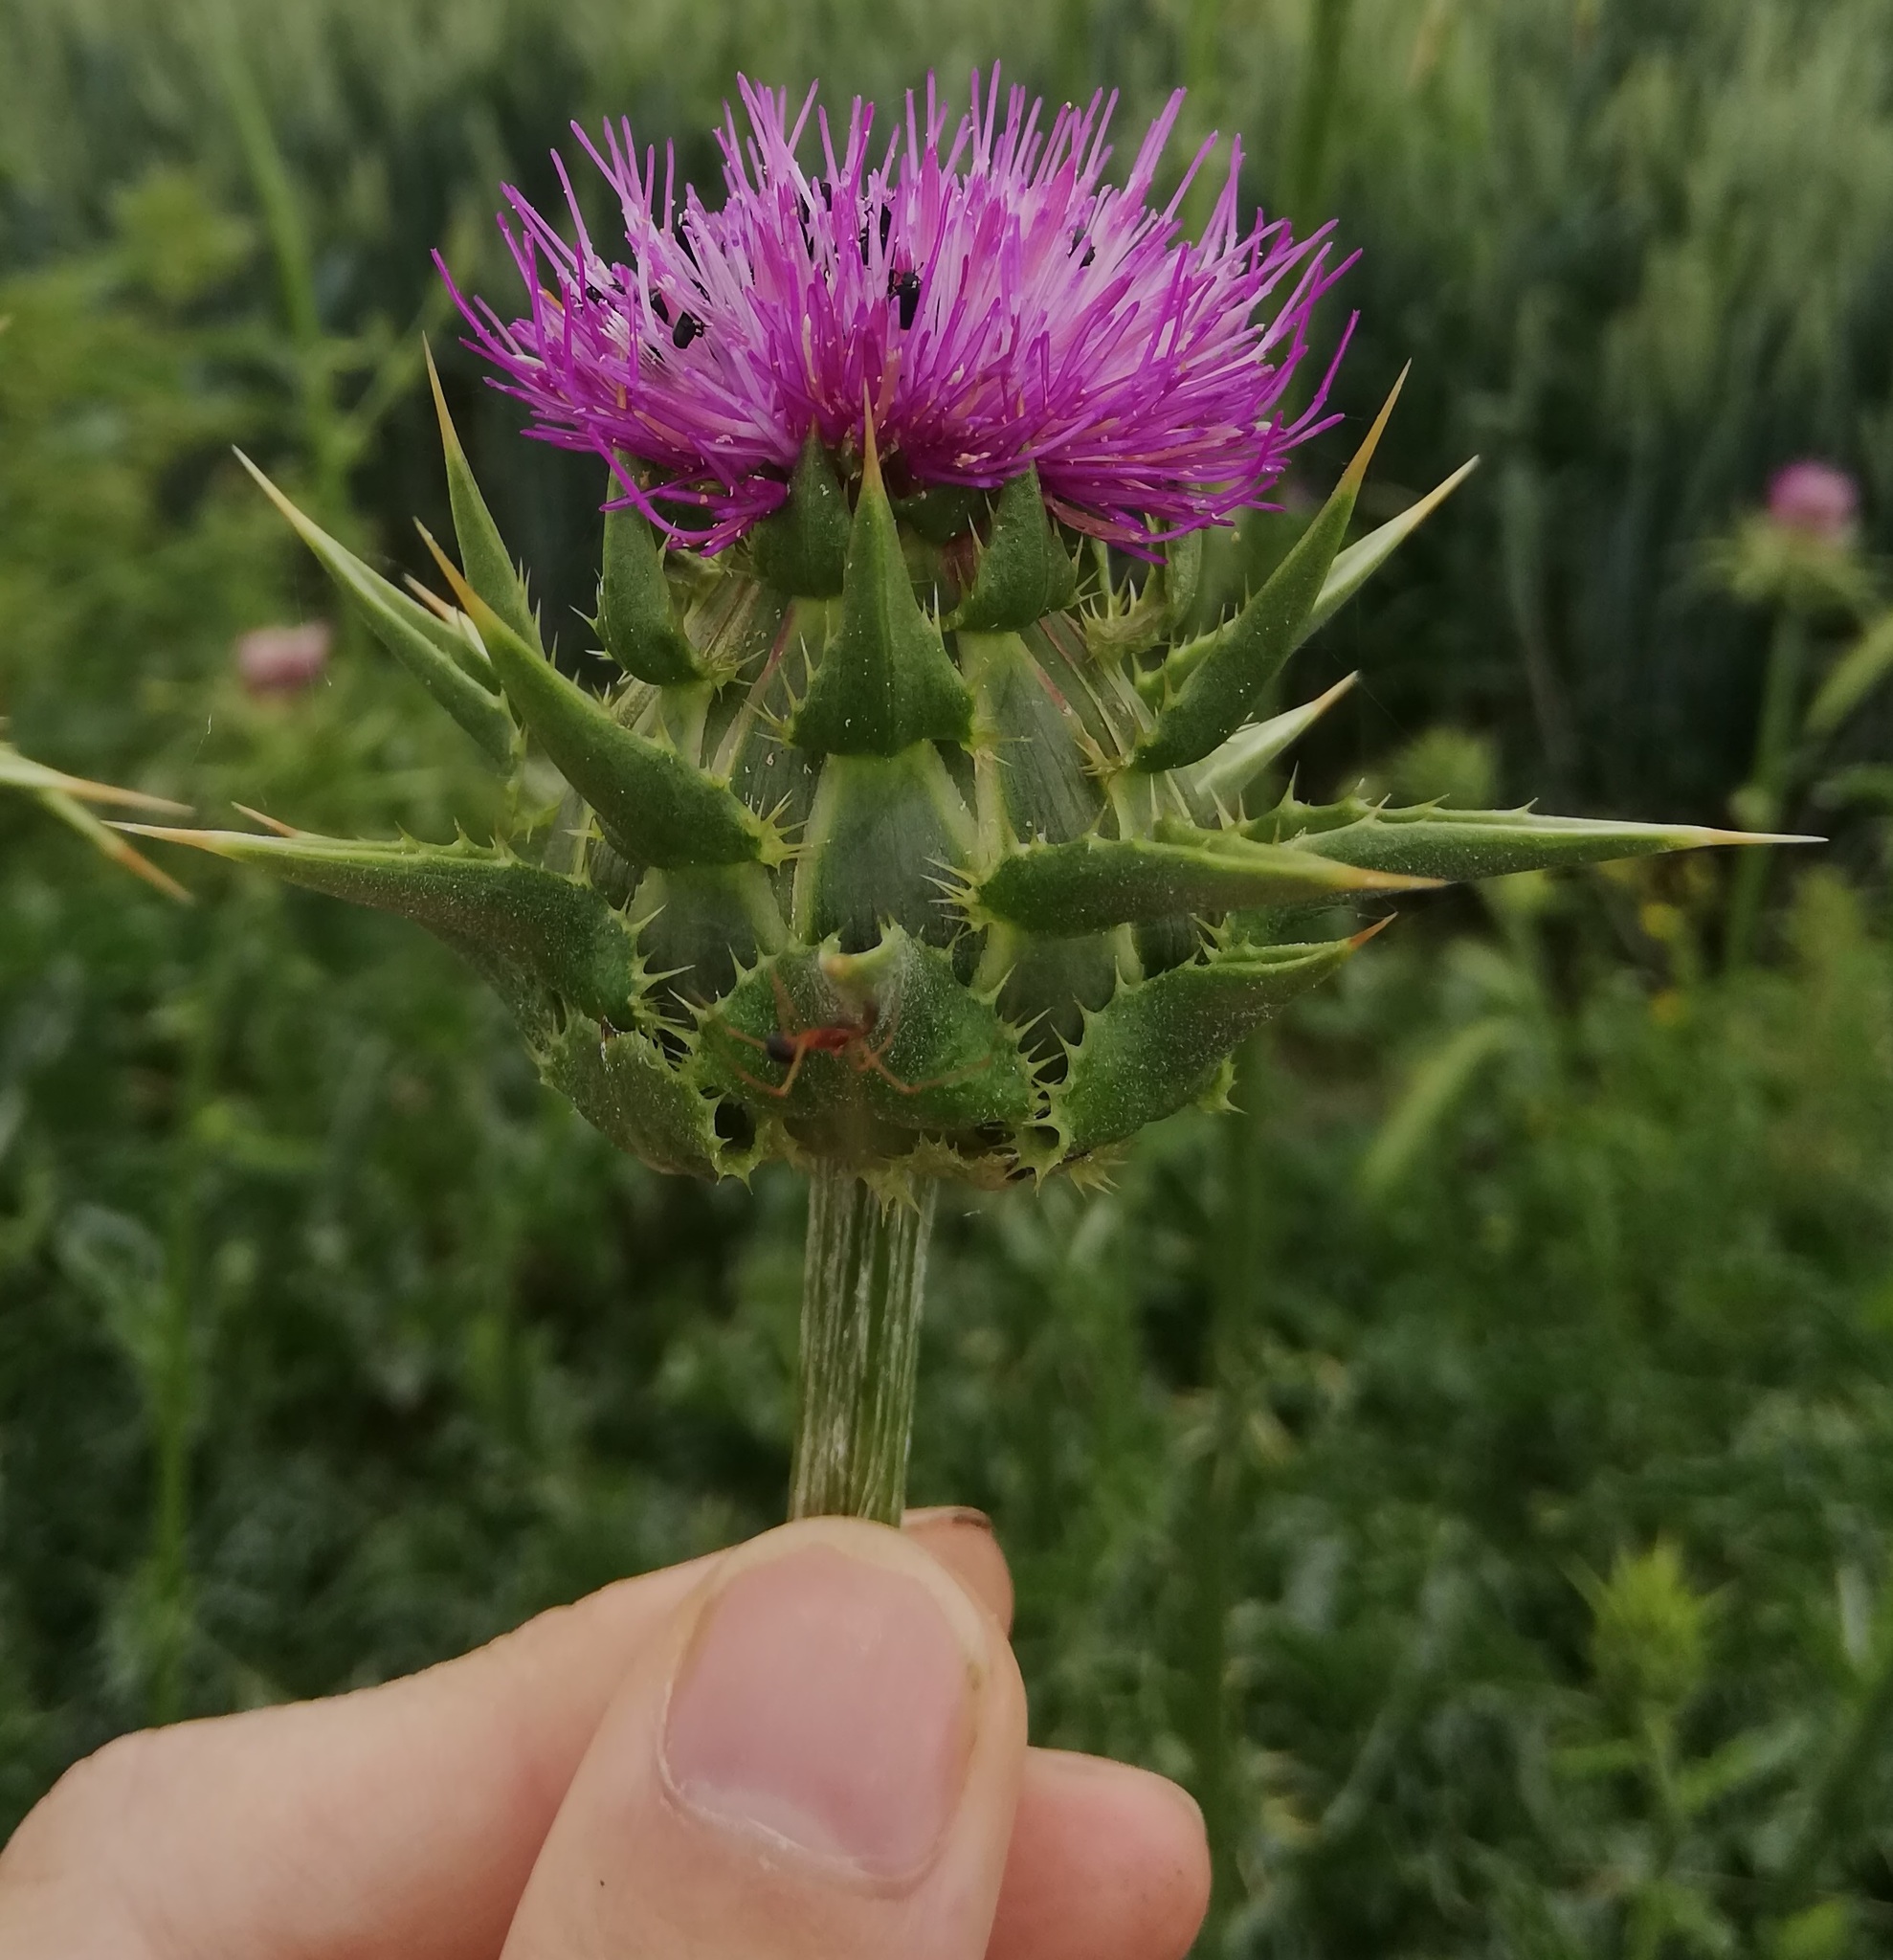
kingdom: Plantae
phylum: Tracheophyta
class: Magnoliopsida
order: Asterales
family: Asteraceae
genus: Silybum
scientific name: Silybum marianum
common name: Milk thistle
